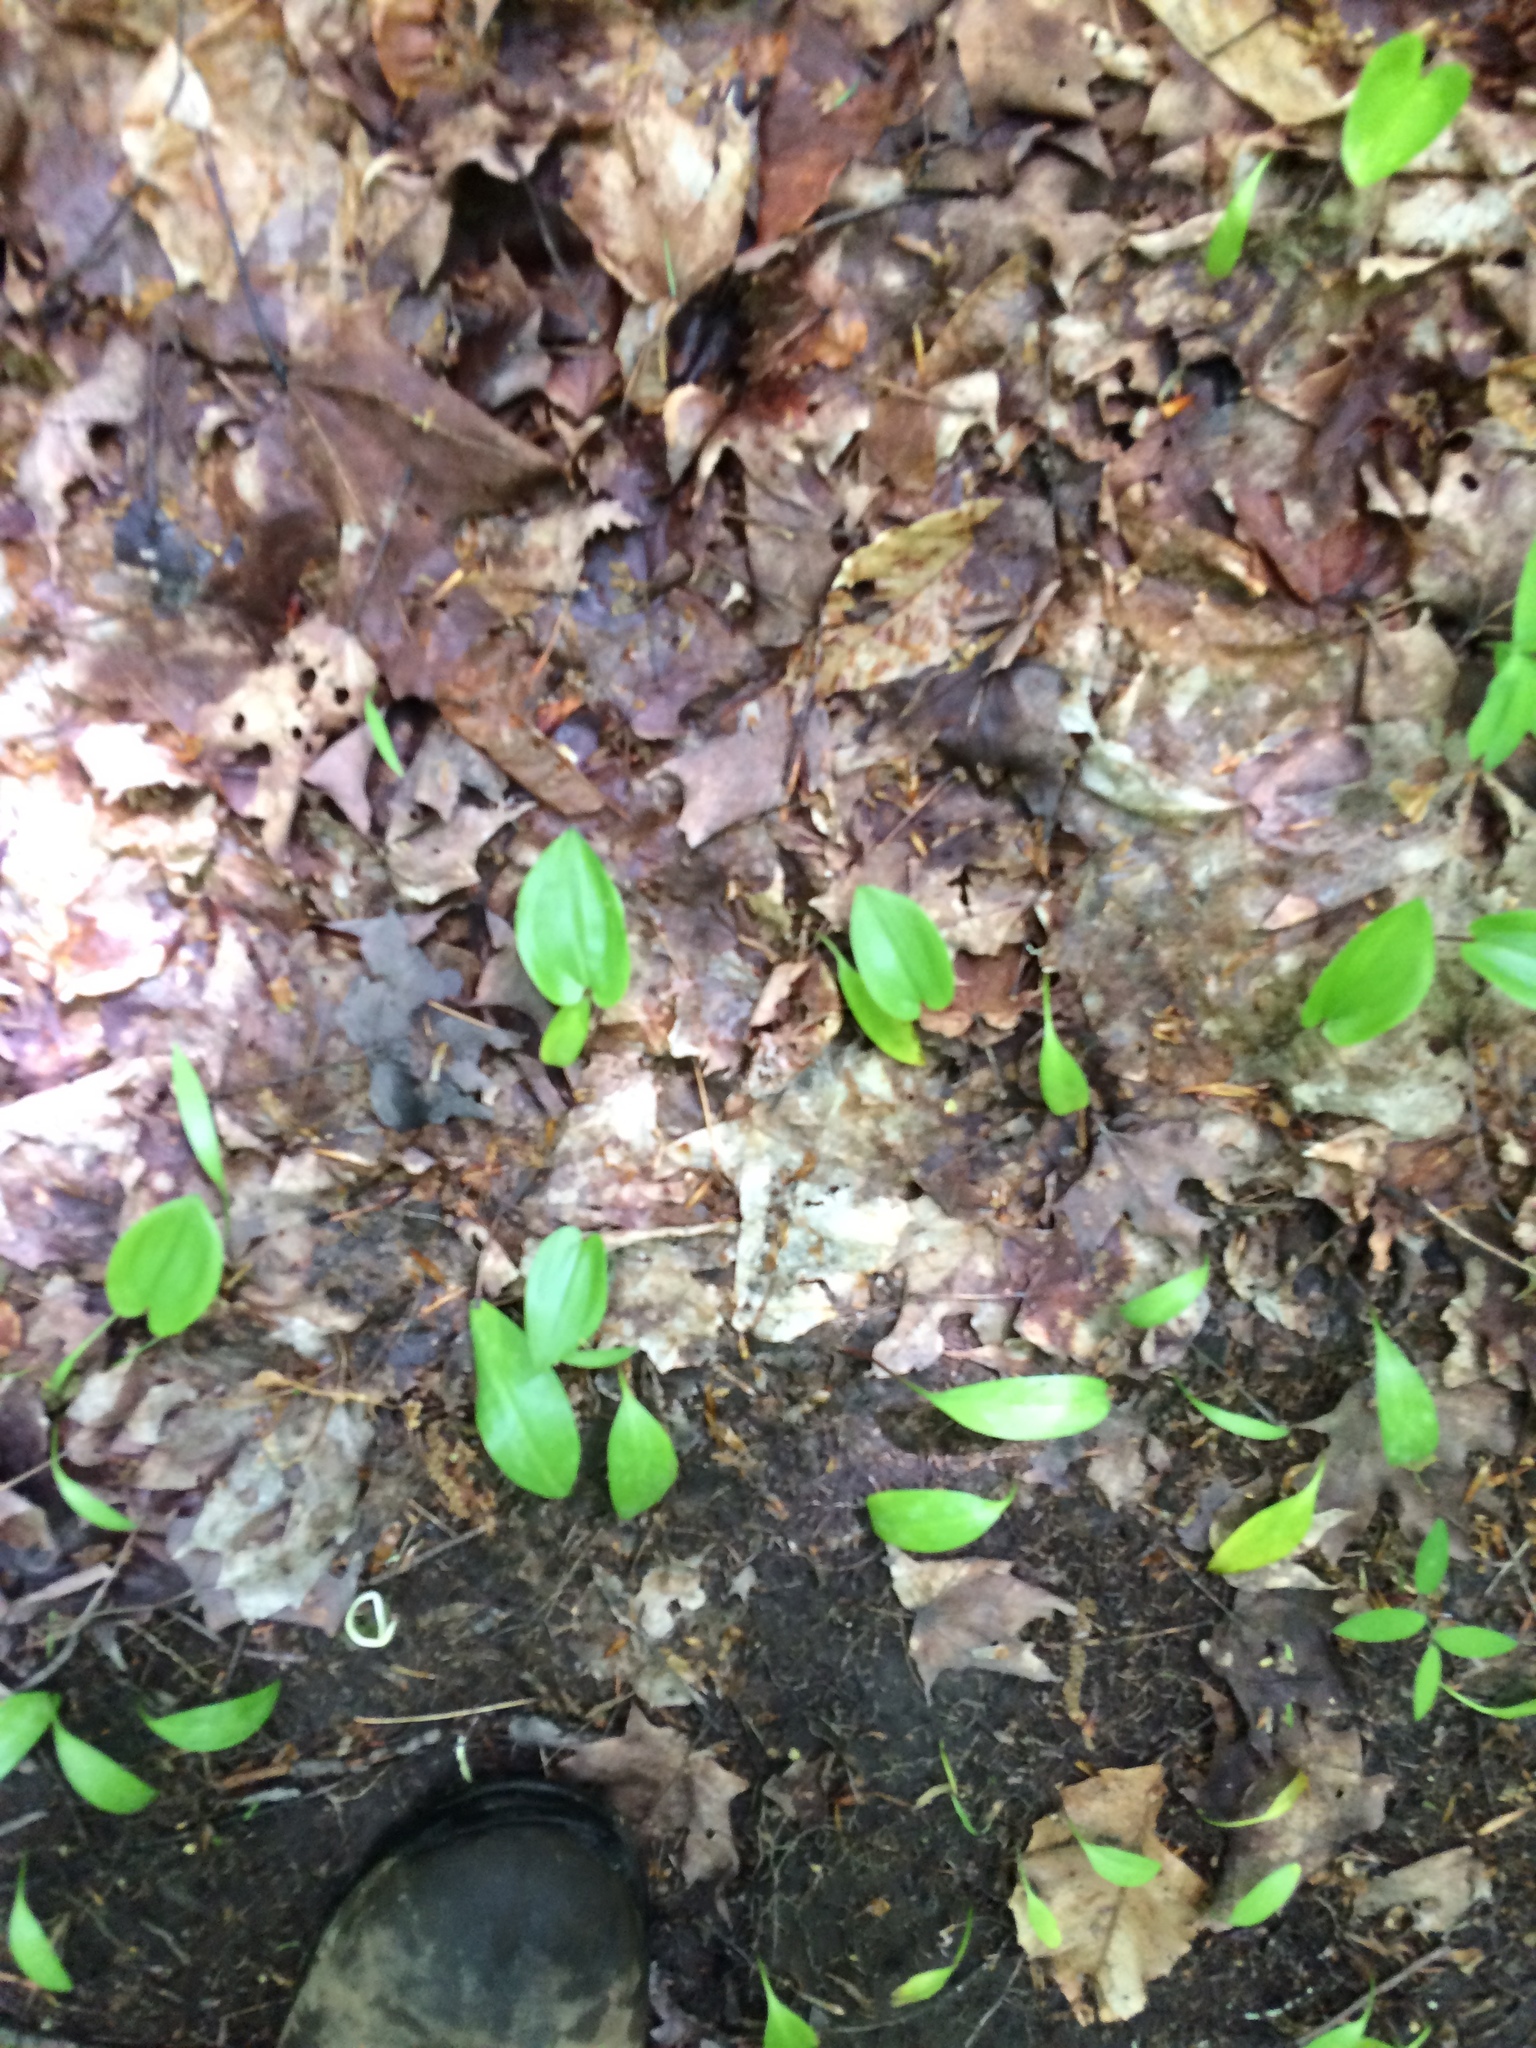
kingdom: Plantae
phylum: Tracheophyta
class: Liliopsida
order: Asparagales
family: Asparagaceae
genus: Maianthemum
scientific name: Maianthemum canadense
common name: False lily-of-the-valley
